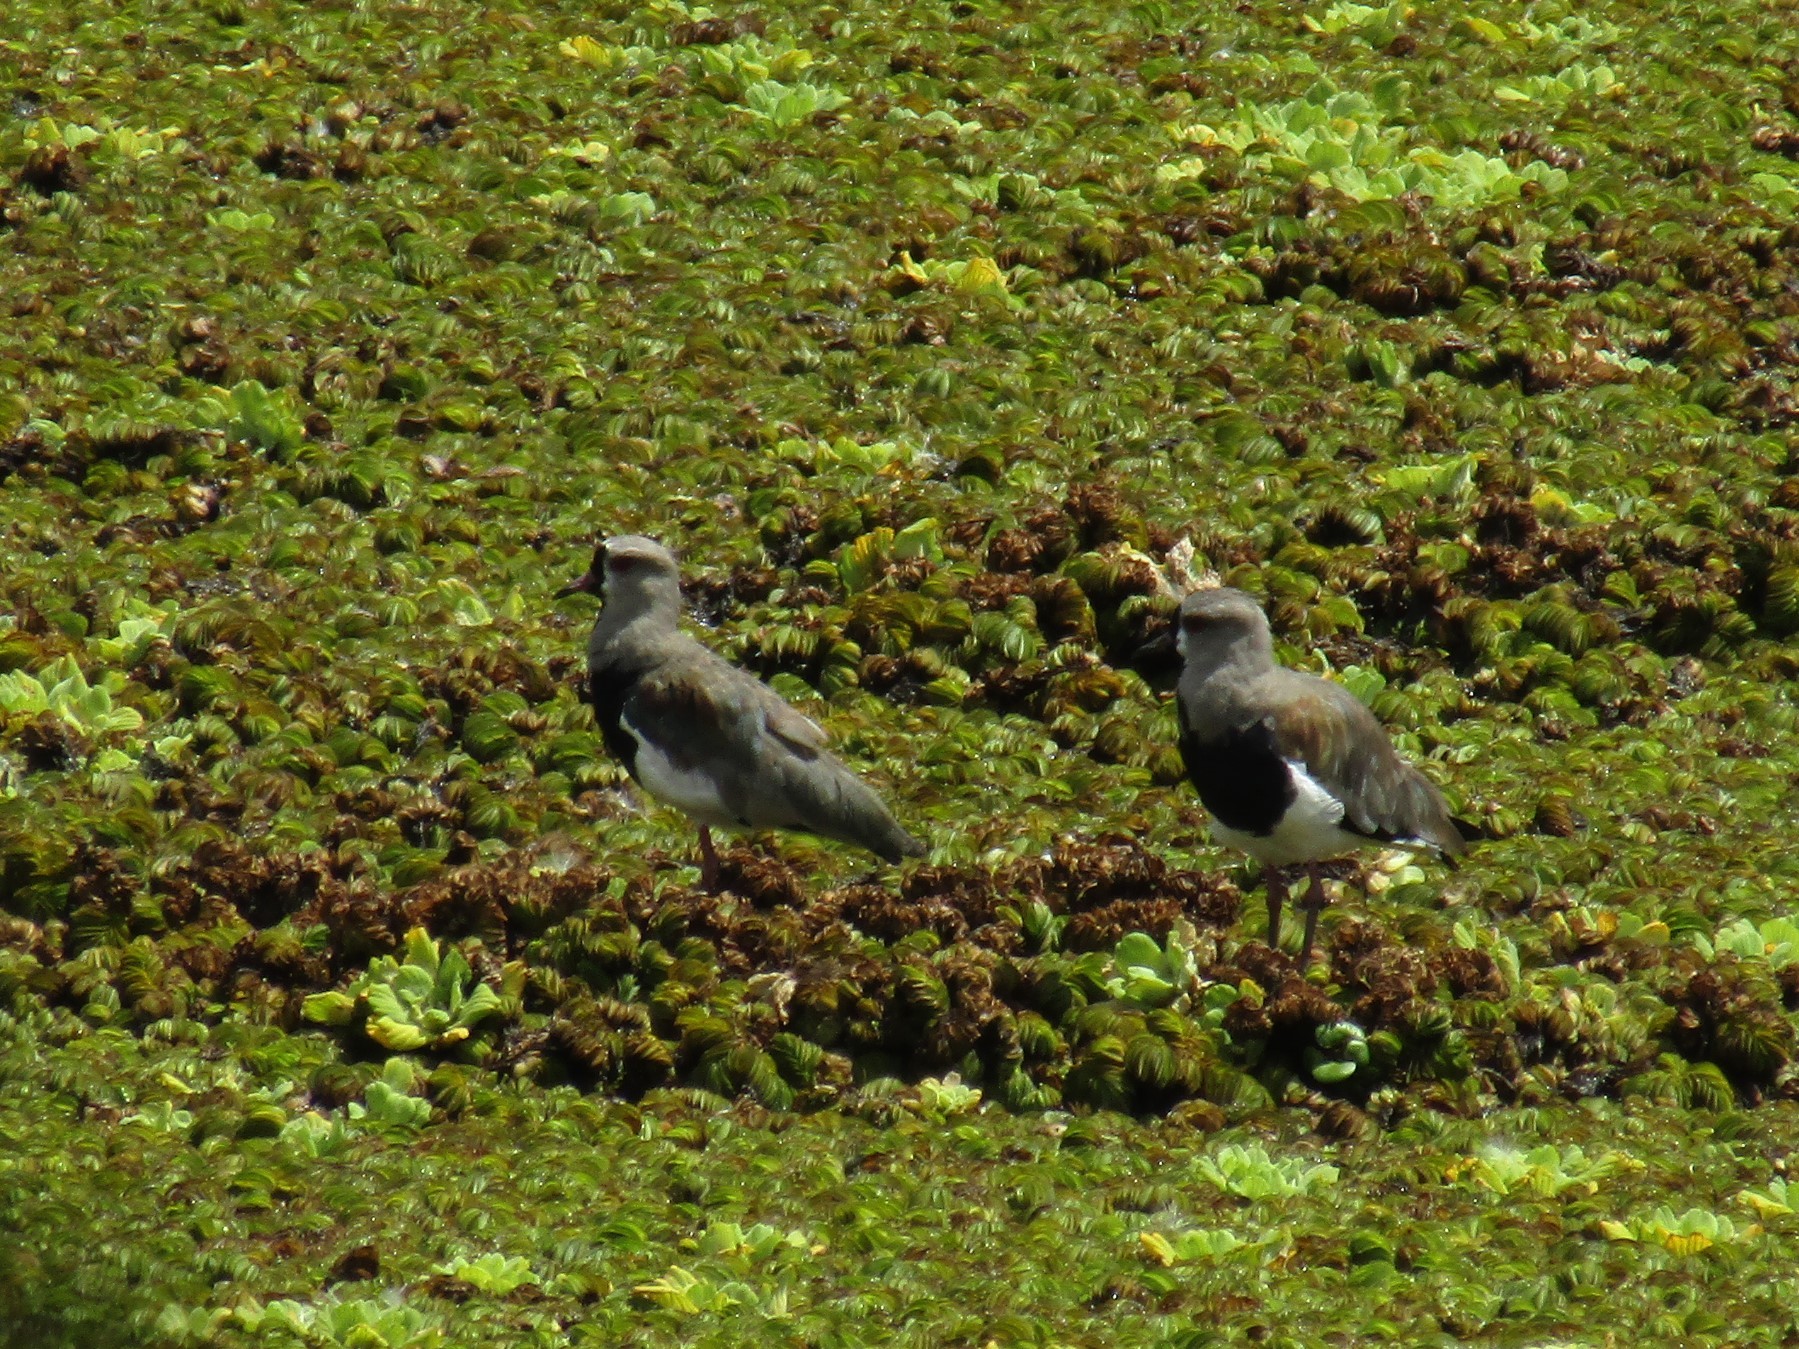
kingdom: Animalia
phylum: Chordata
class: Aves
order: Charadriiformes
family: Charadriidae
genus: Vanellus
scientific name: Vanellus chilensis
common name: Southern lapwing
